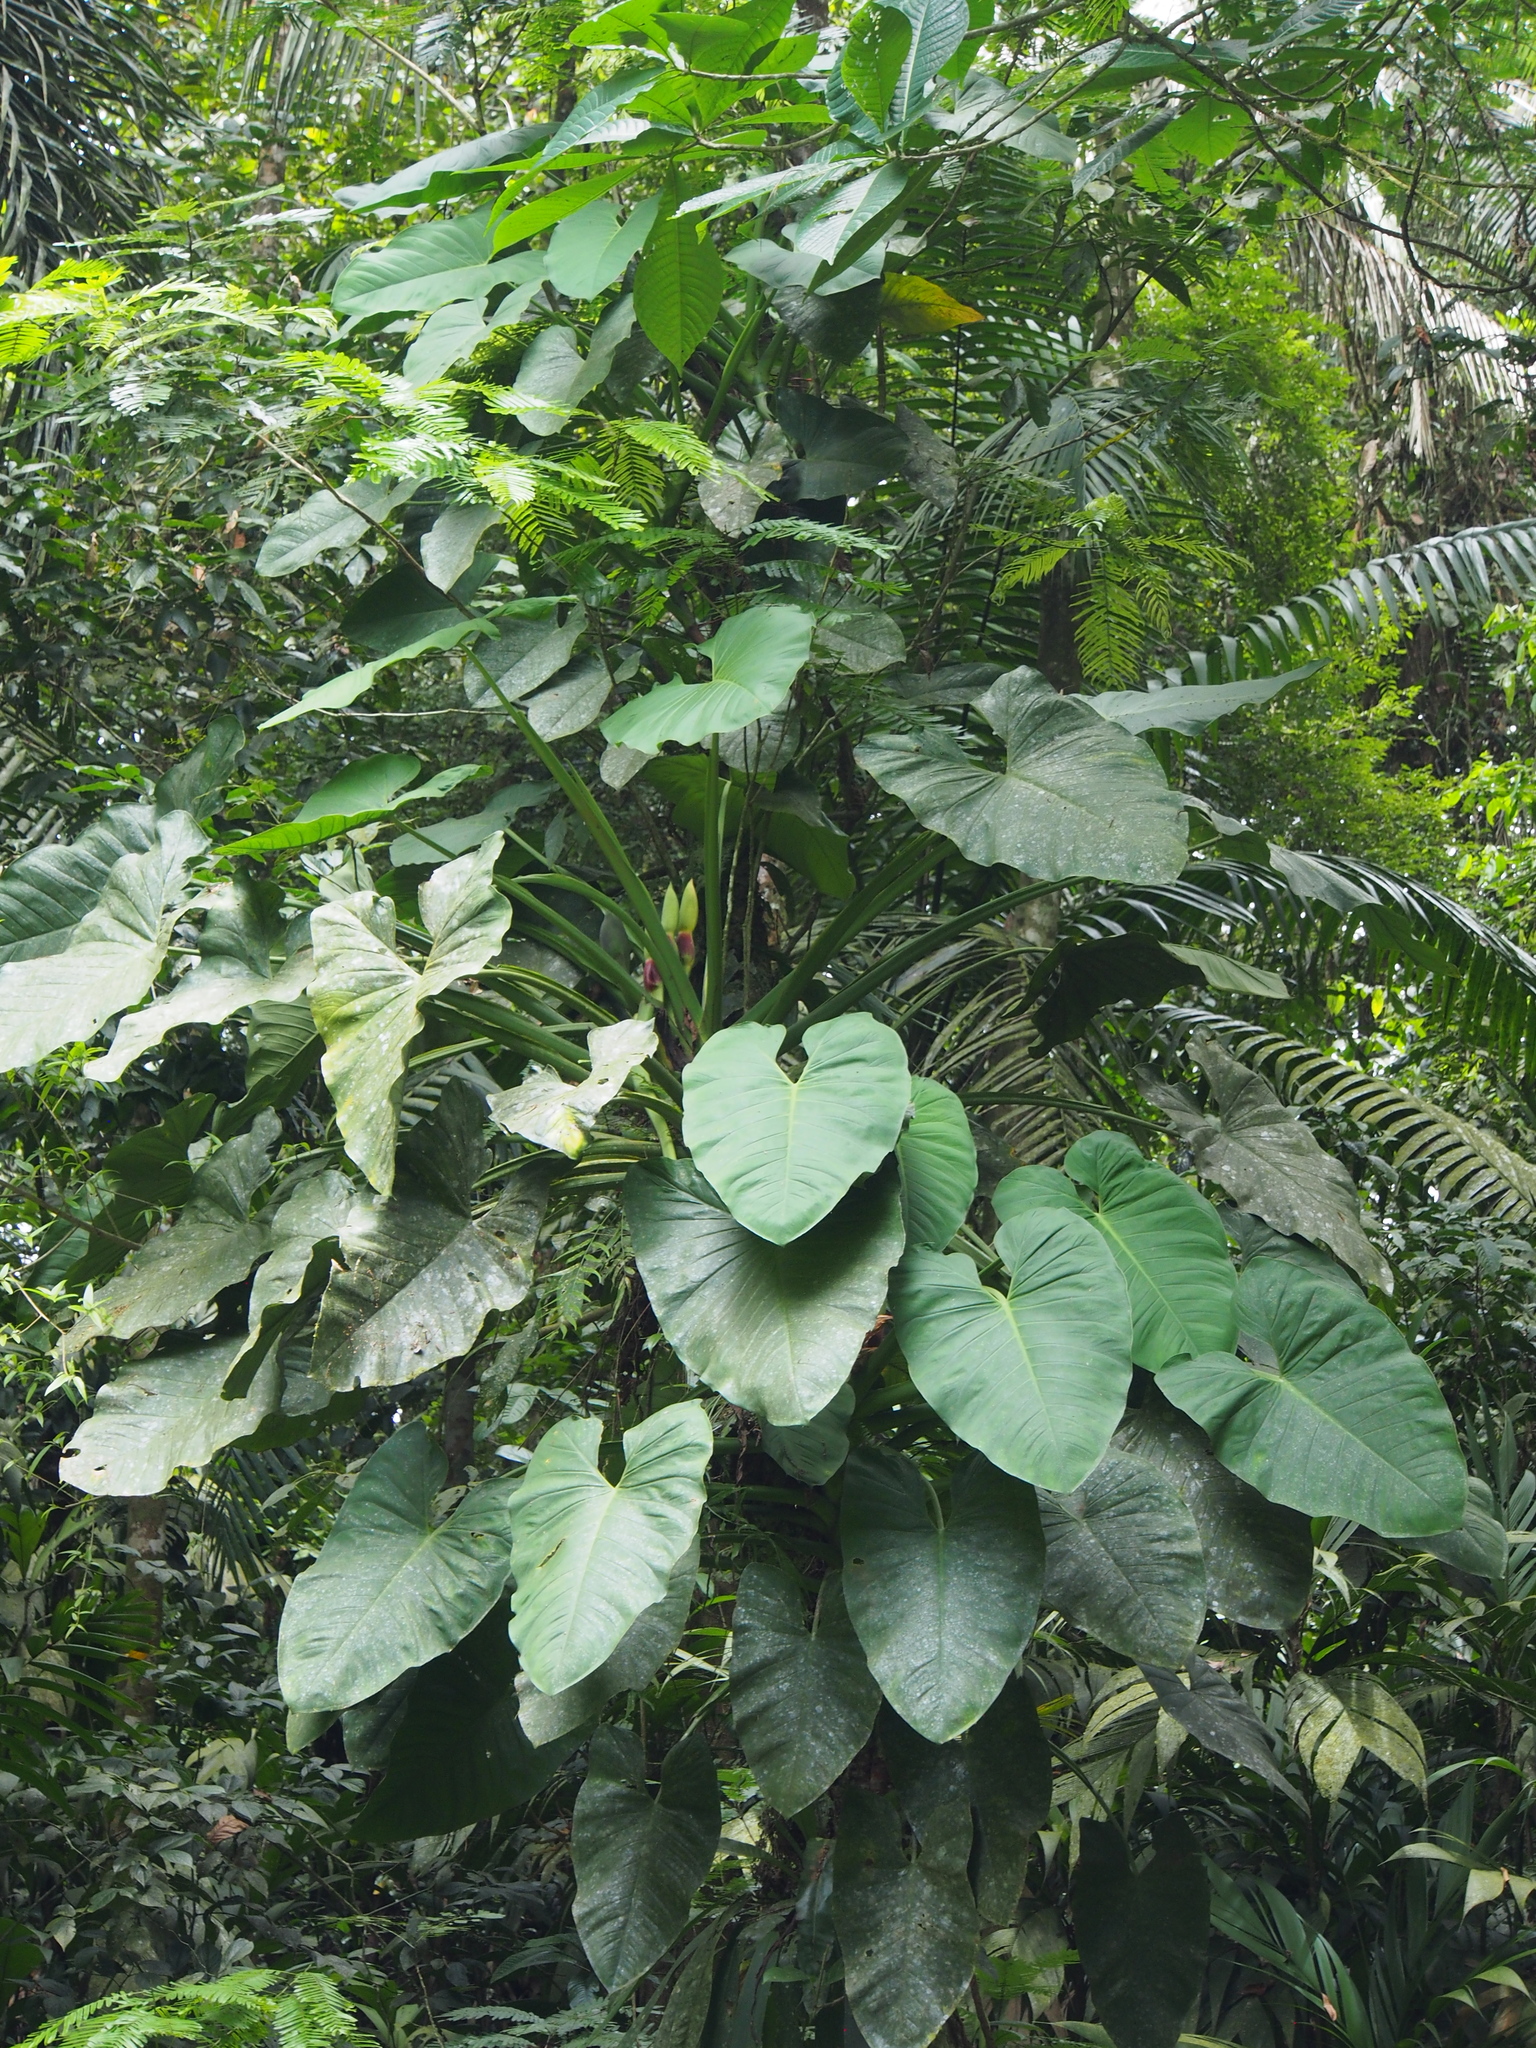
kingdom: Plantae
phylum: Tracheophyta
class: Liliopsida
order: Alismatales
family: Araceae
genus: Syngonium
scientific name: Syngonium schottianum
